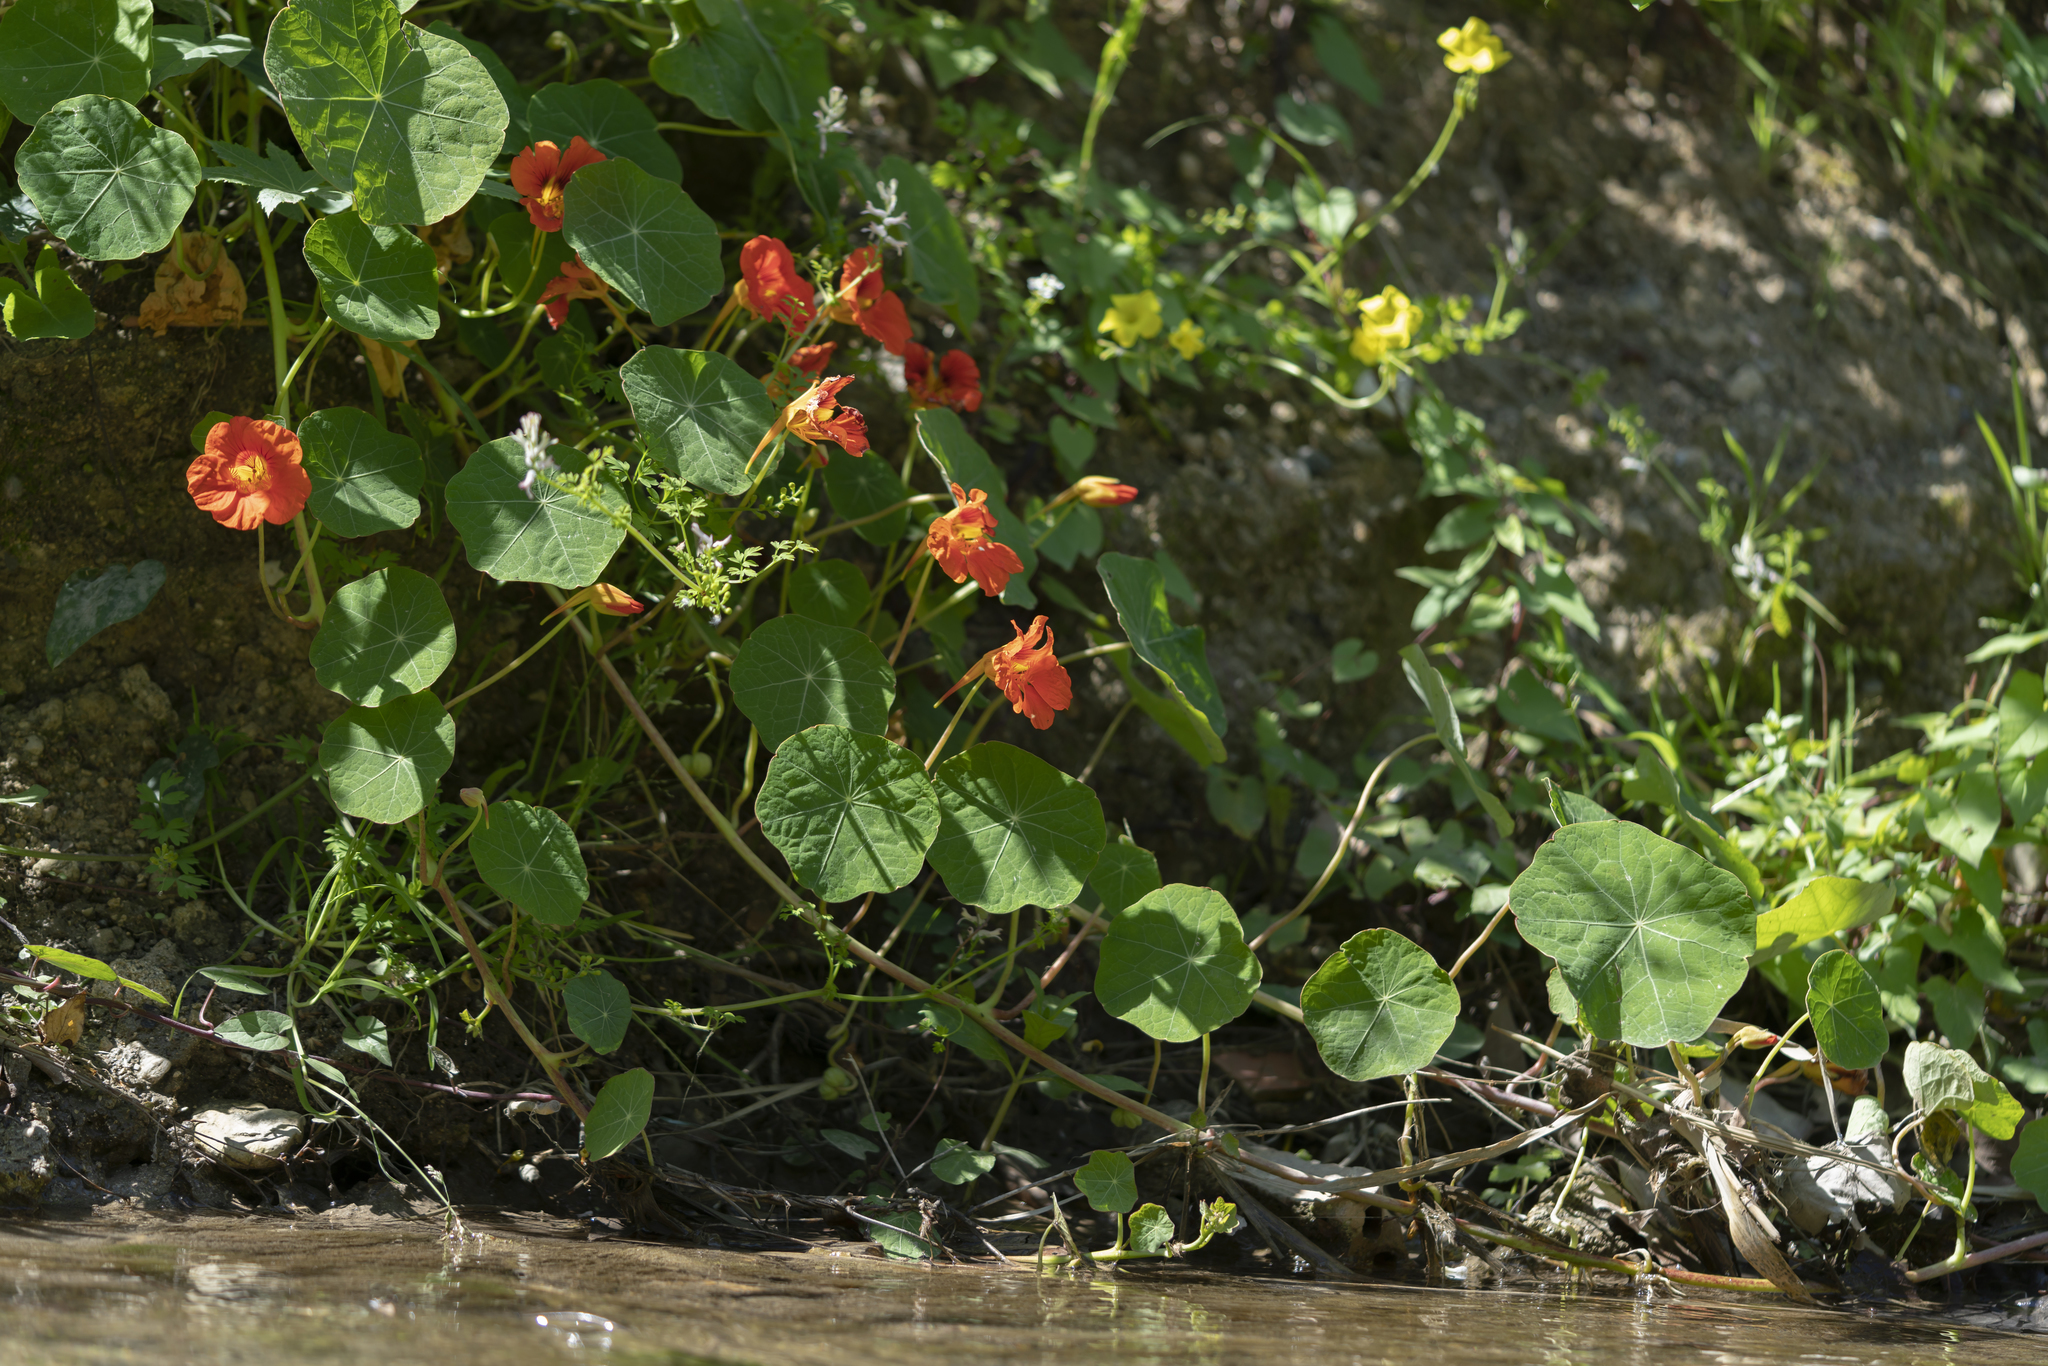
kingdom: Plantae
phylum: Tracheophyta
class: Magnoliopsida
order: Brassicales
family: Tropaeolaceae
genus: Tropaeolum
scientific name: Tropaeolum majus
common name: Nasturtium
